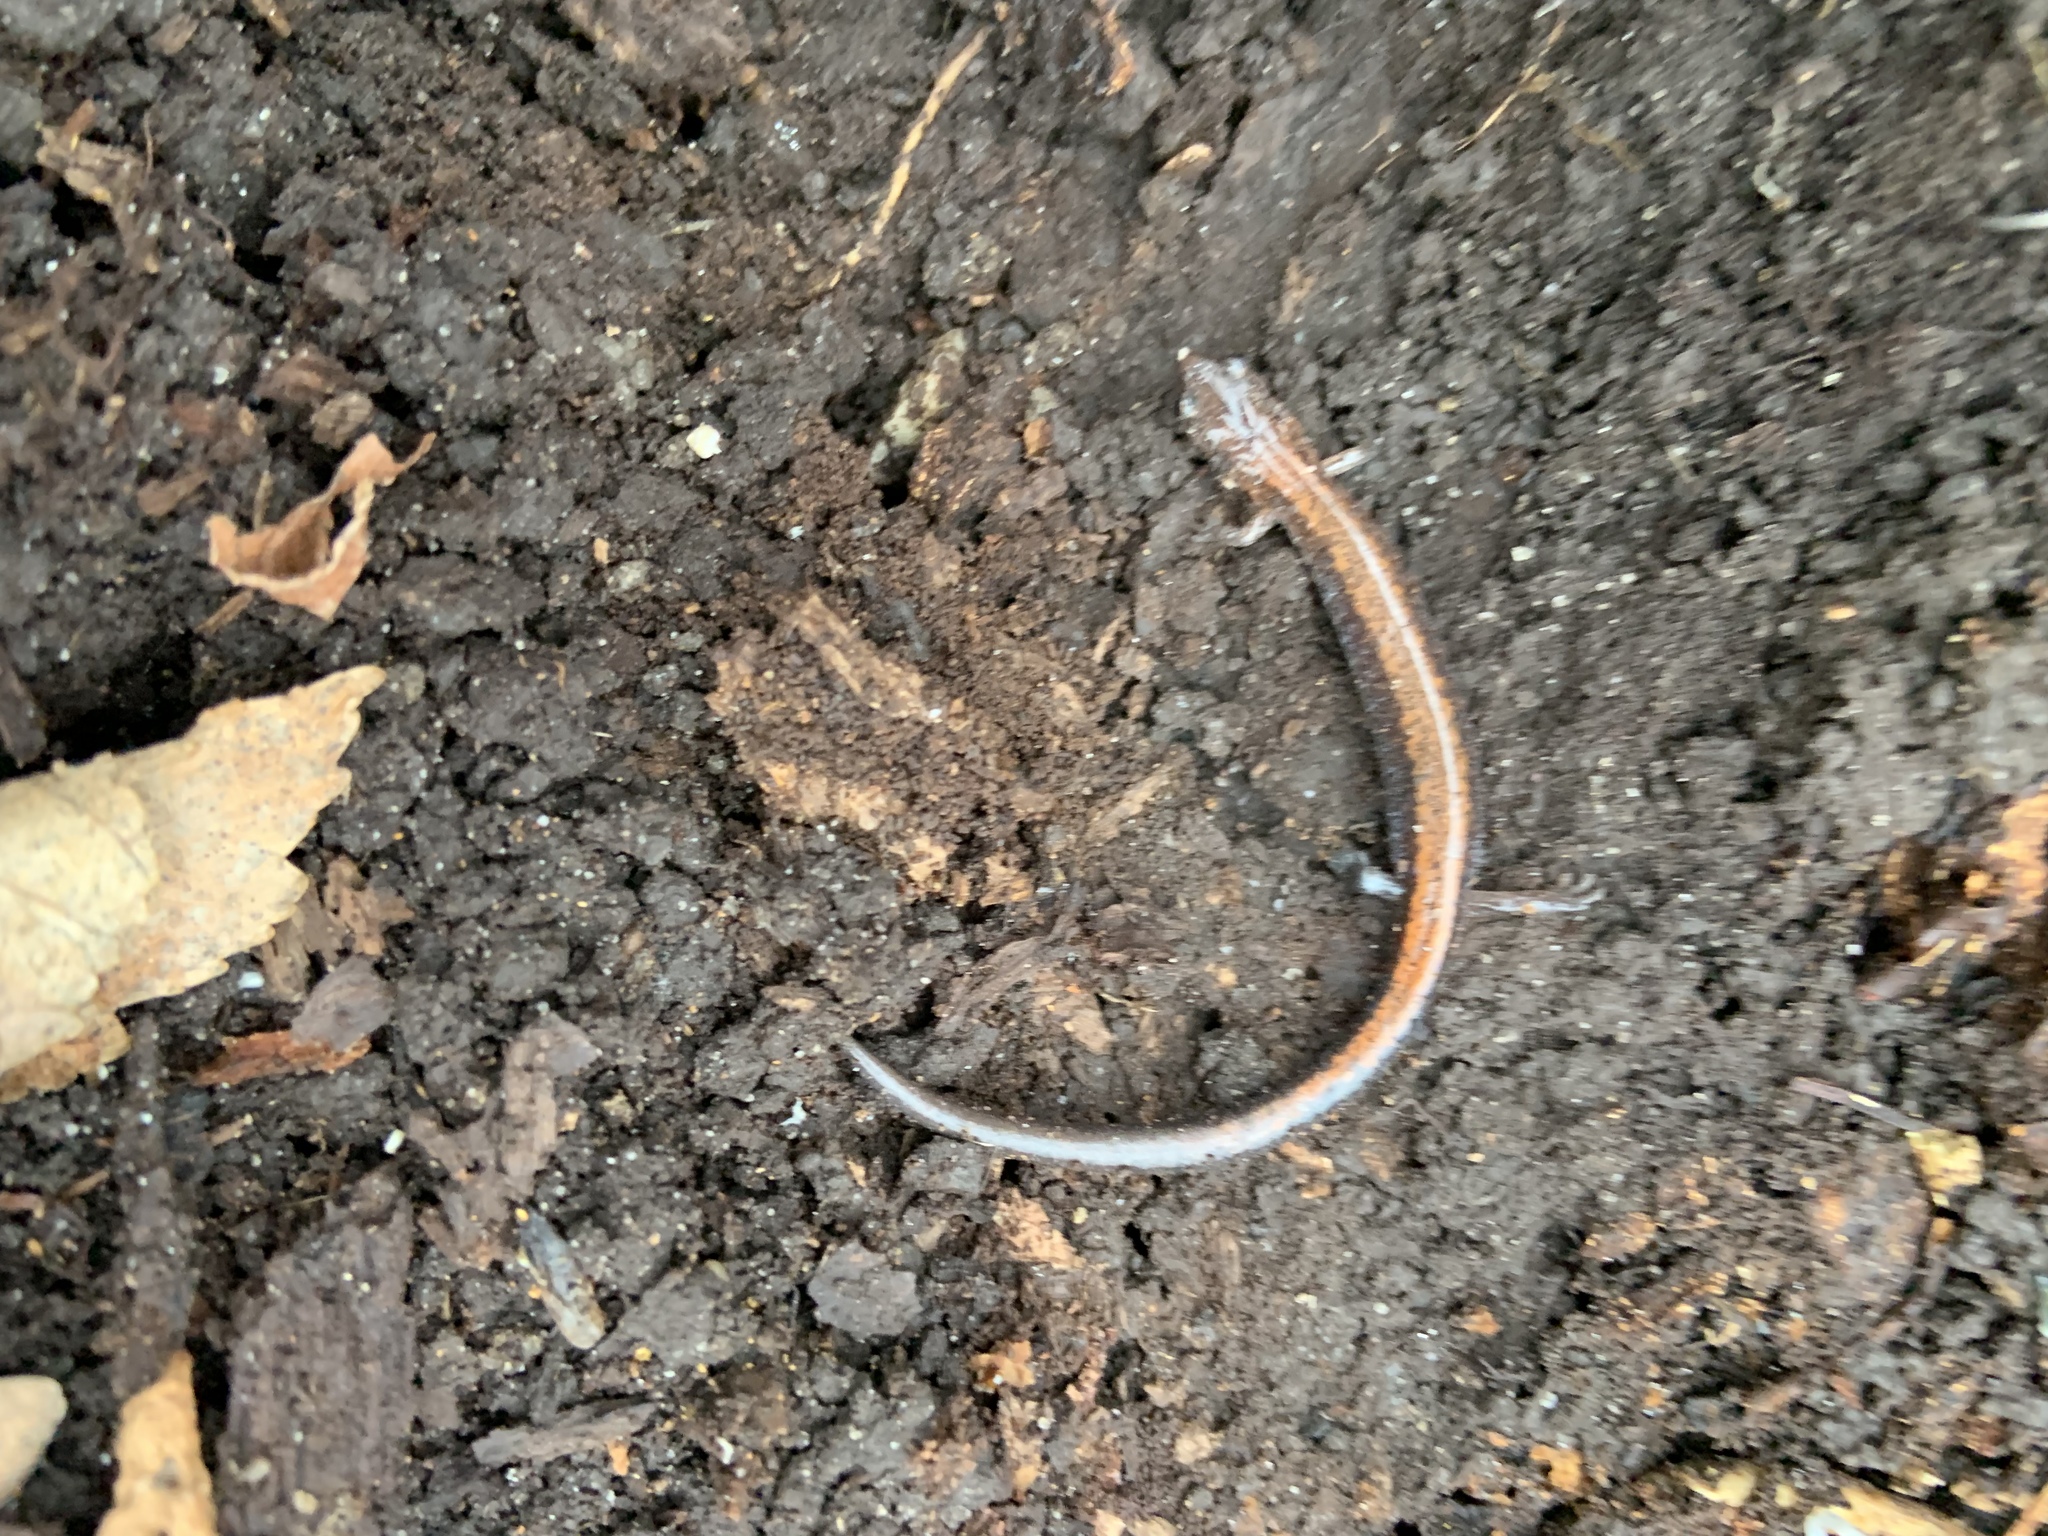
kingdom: Animalia
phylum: Chordata
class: Amphibia
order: Caudata
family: Plethodontidae
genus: Plethodon
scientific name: Plethodon cinereus
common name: Redback salamander
